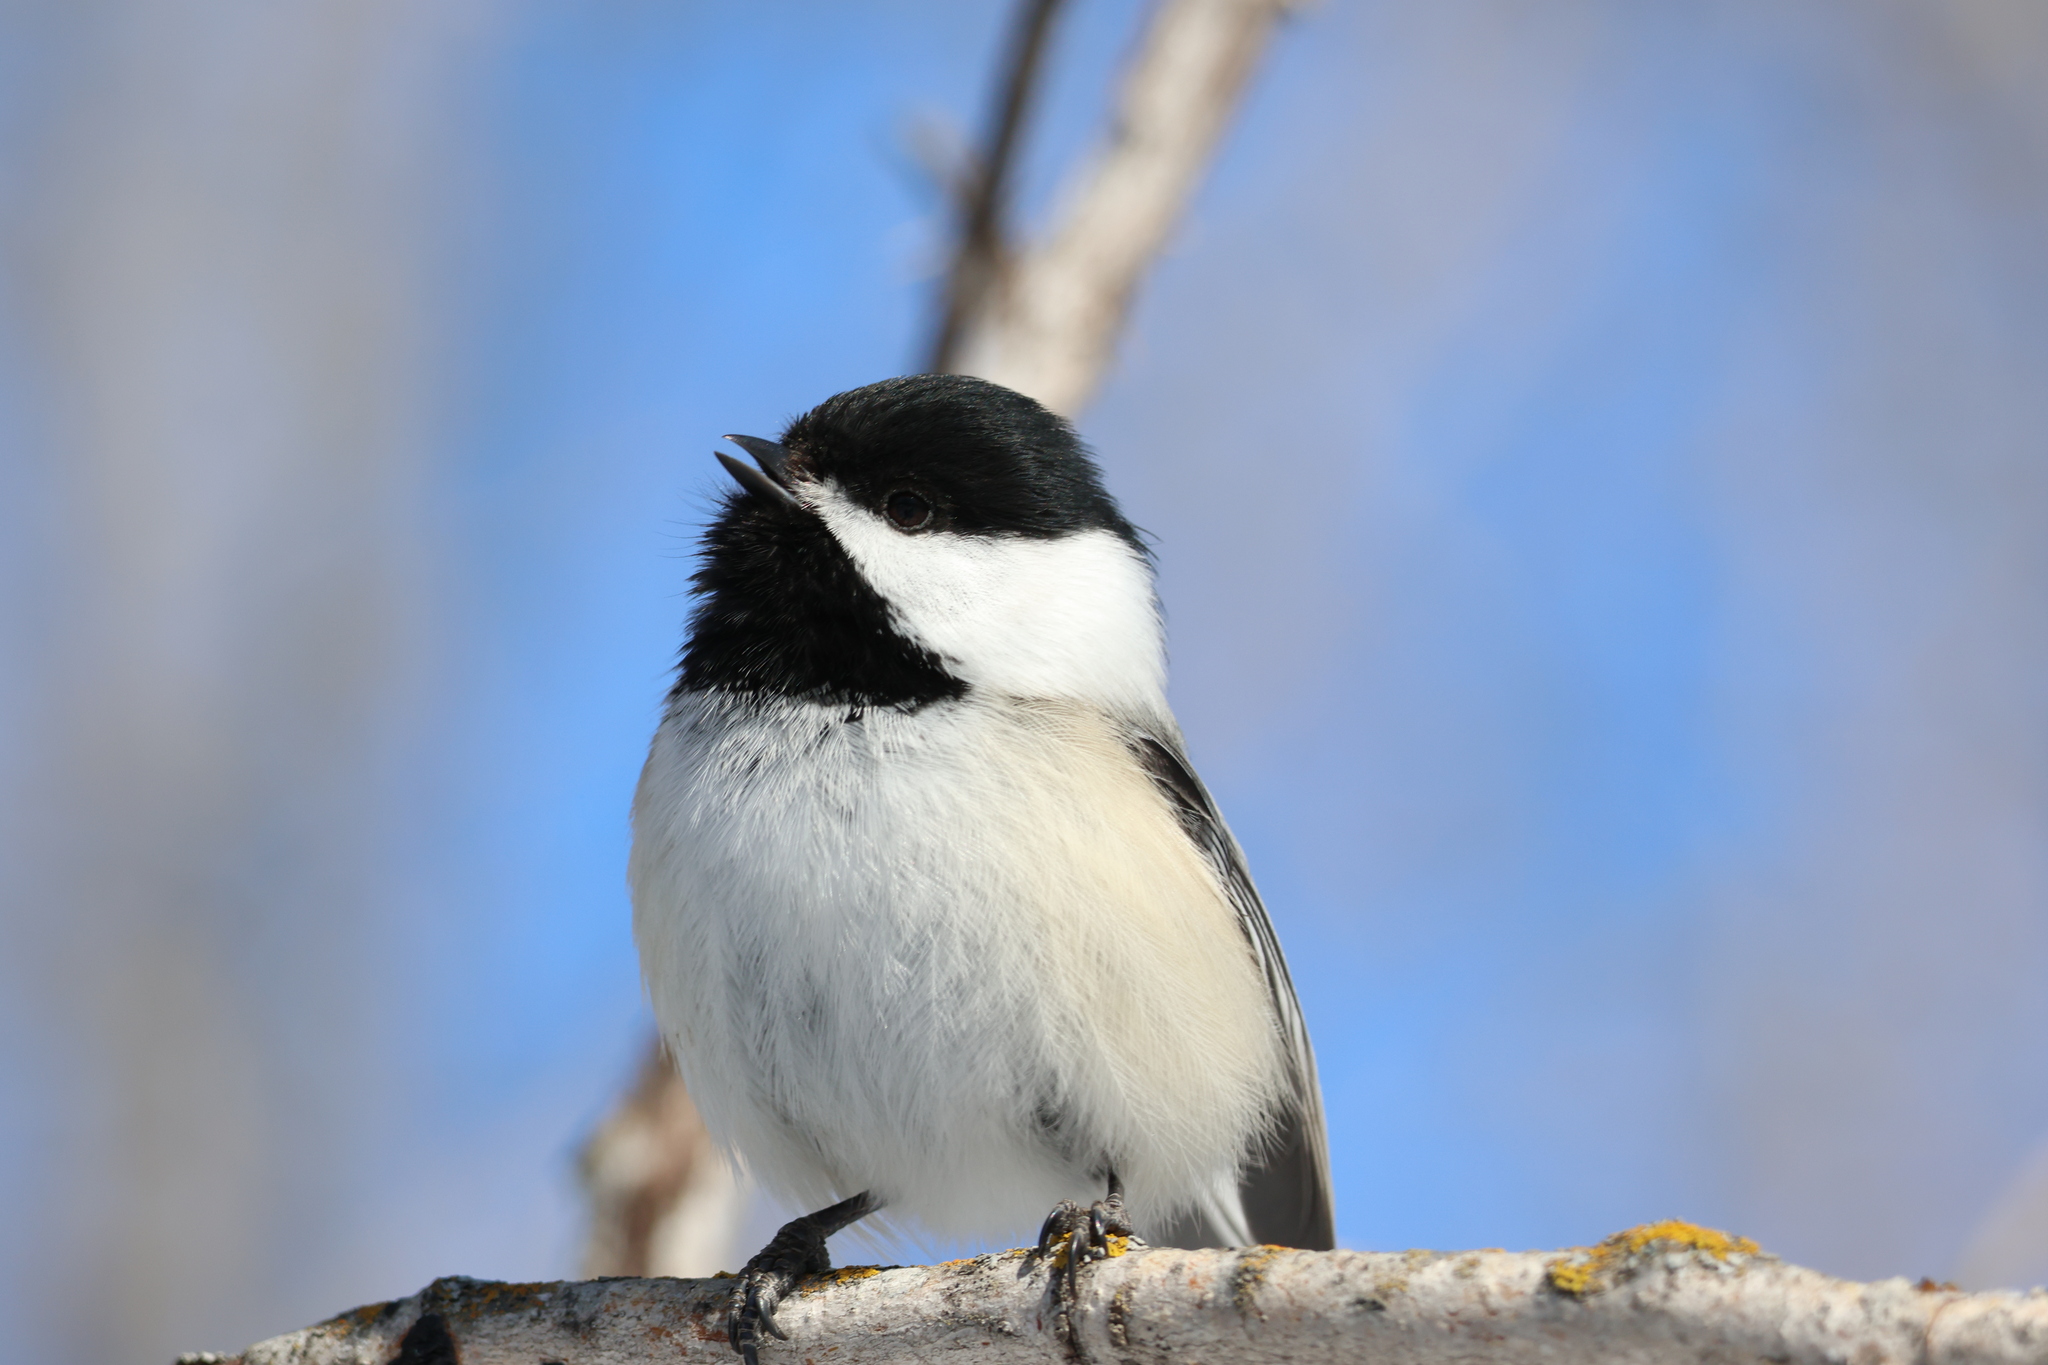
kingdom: Animalia
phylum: Chordata
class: Aves
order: Passeriformes
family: Paridae
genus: Poecile
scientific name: Poecile atricapillus
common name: Black-capped chickadee
